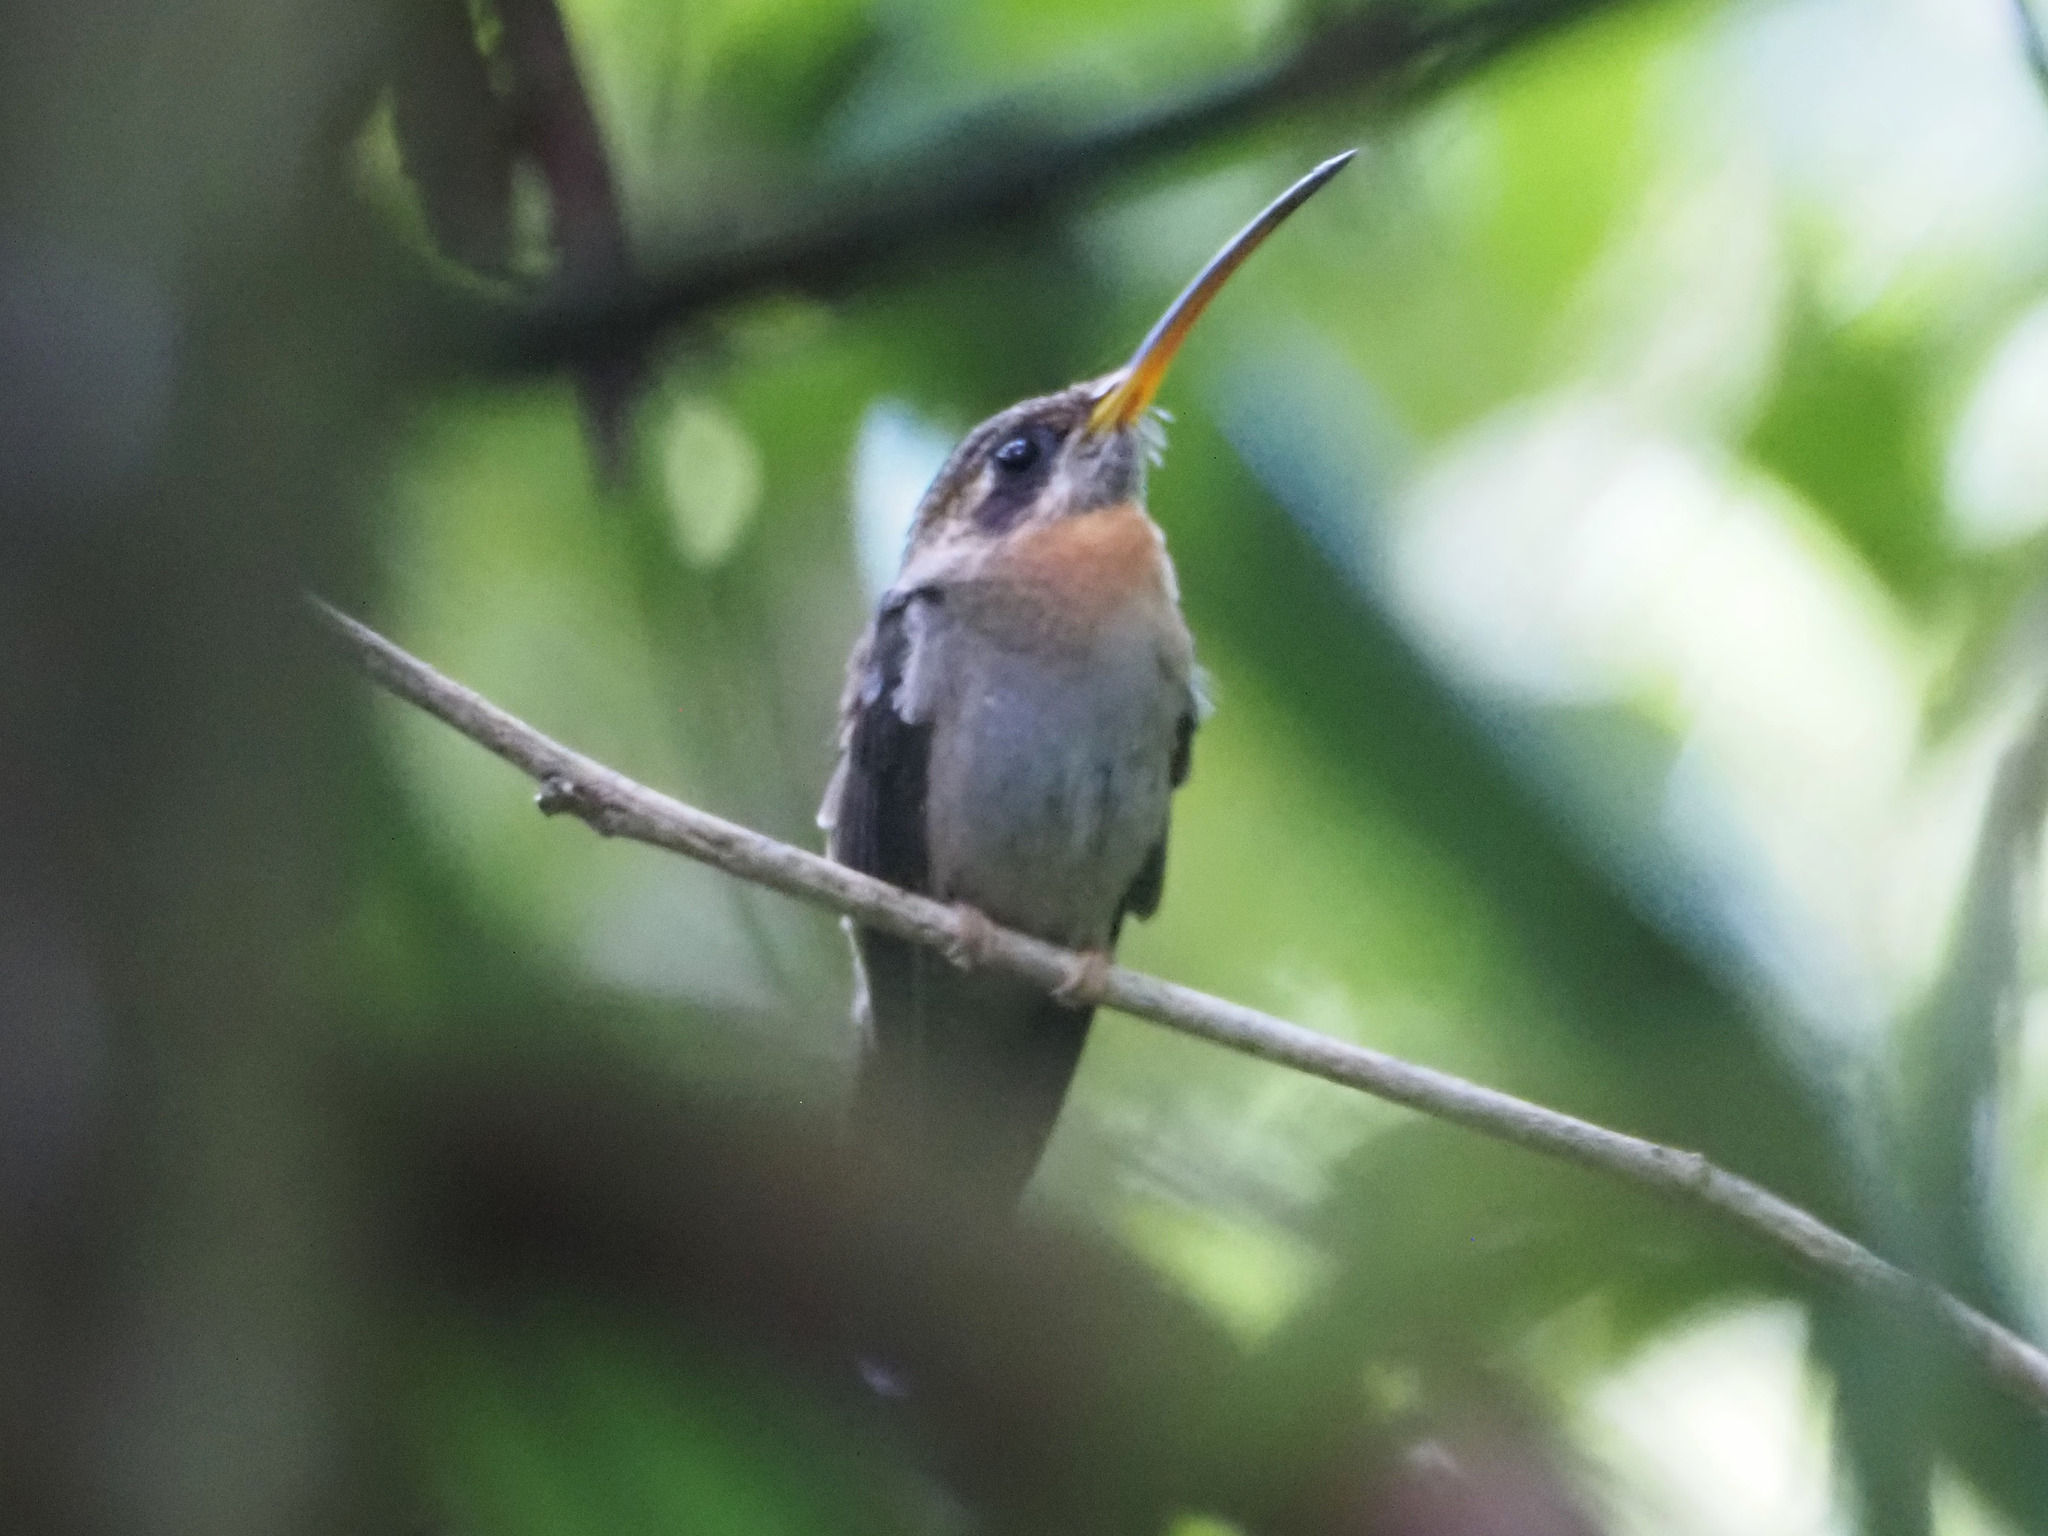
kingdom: Animalia
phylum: Chordata
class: Aves
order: Apodiformes
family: Trochilidae
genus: Threnetes
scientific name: Threnetes ruckeri
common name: Band-tailed barbthroat
